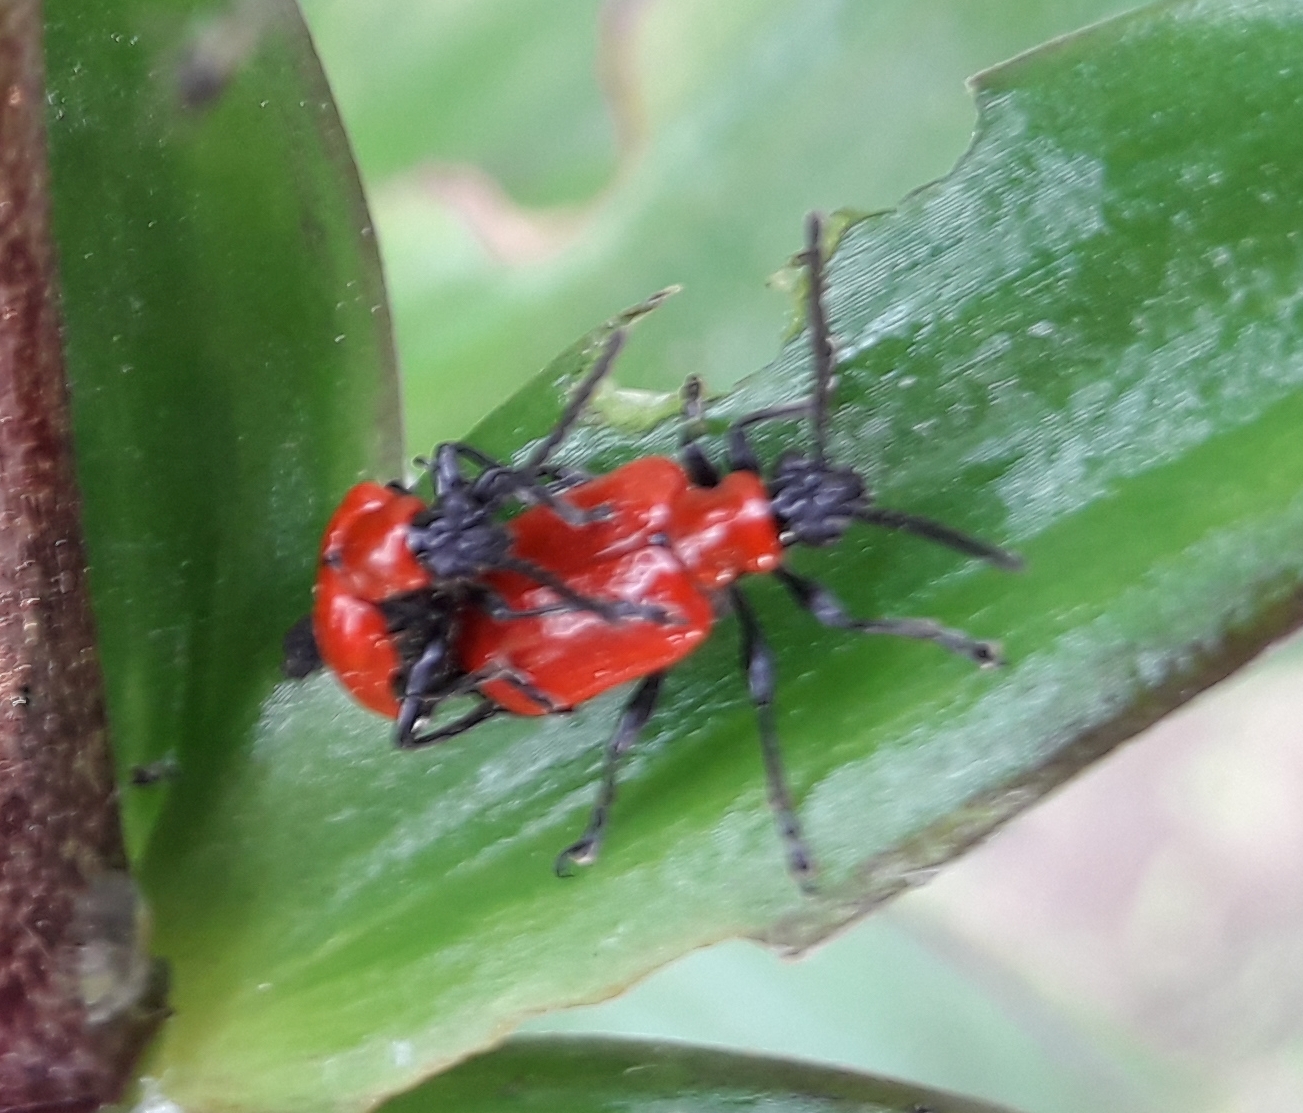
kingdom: Animalia
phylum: Arthropoda
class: Insecta
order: Coleoptera
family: Chrysomelidae
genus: Lilioceris
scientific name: Lilioceris lilii
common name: Lily beetle
